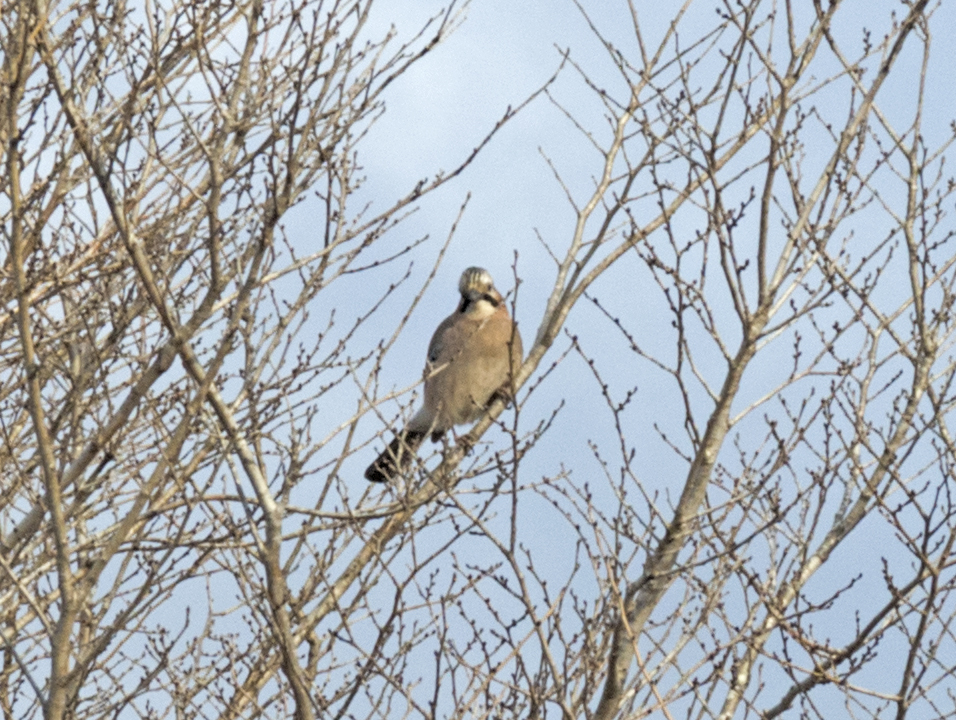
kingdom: Animalia
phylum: Chordata
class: Aves
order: Passeriformes
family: Corvidae
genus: Garrulus
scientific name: Garrulus glandarius
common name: Eurasian jay
